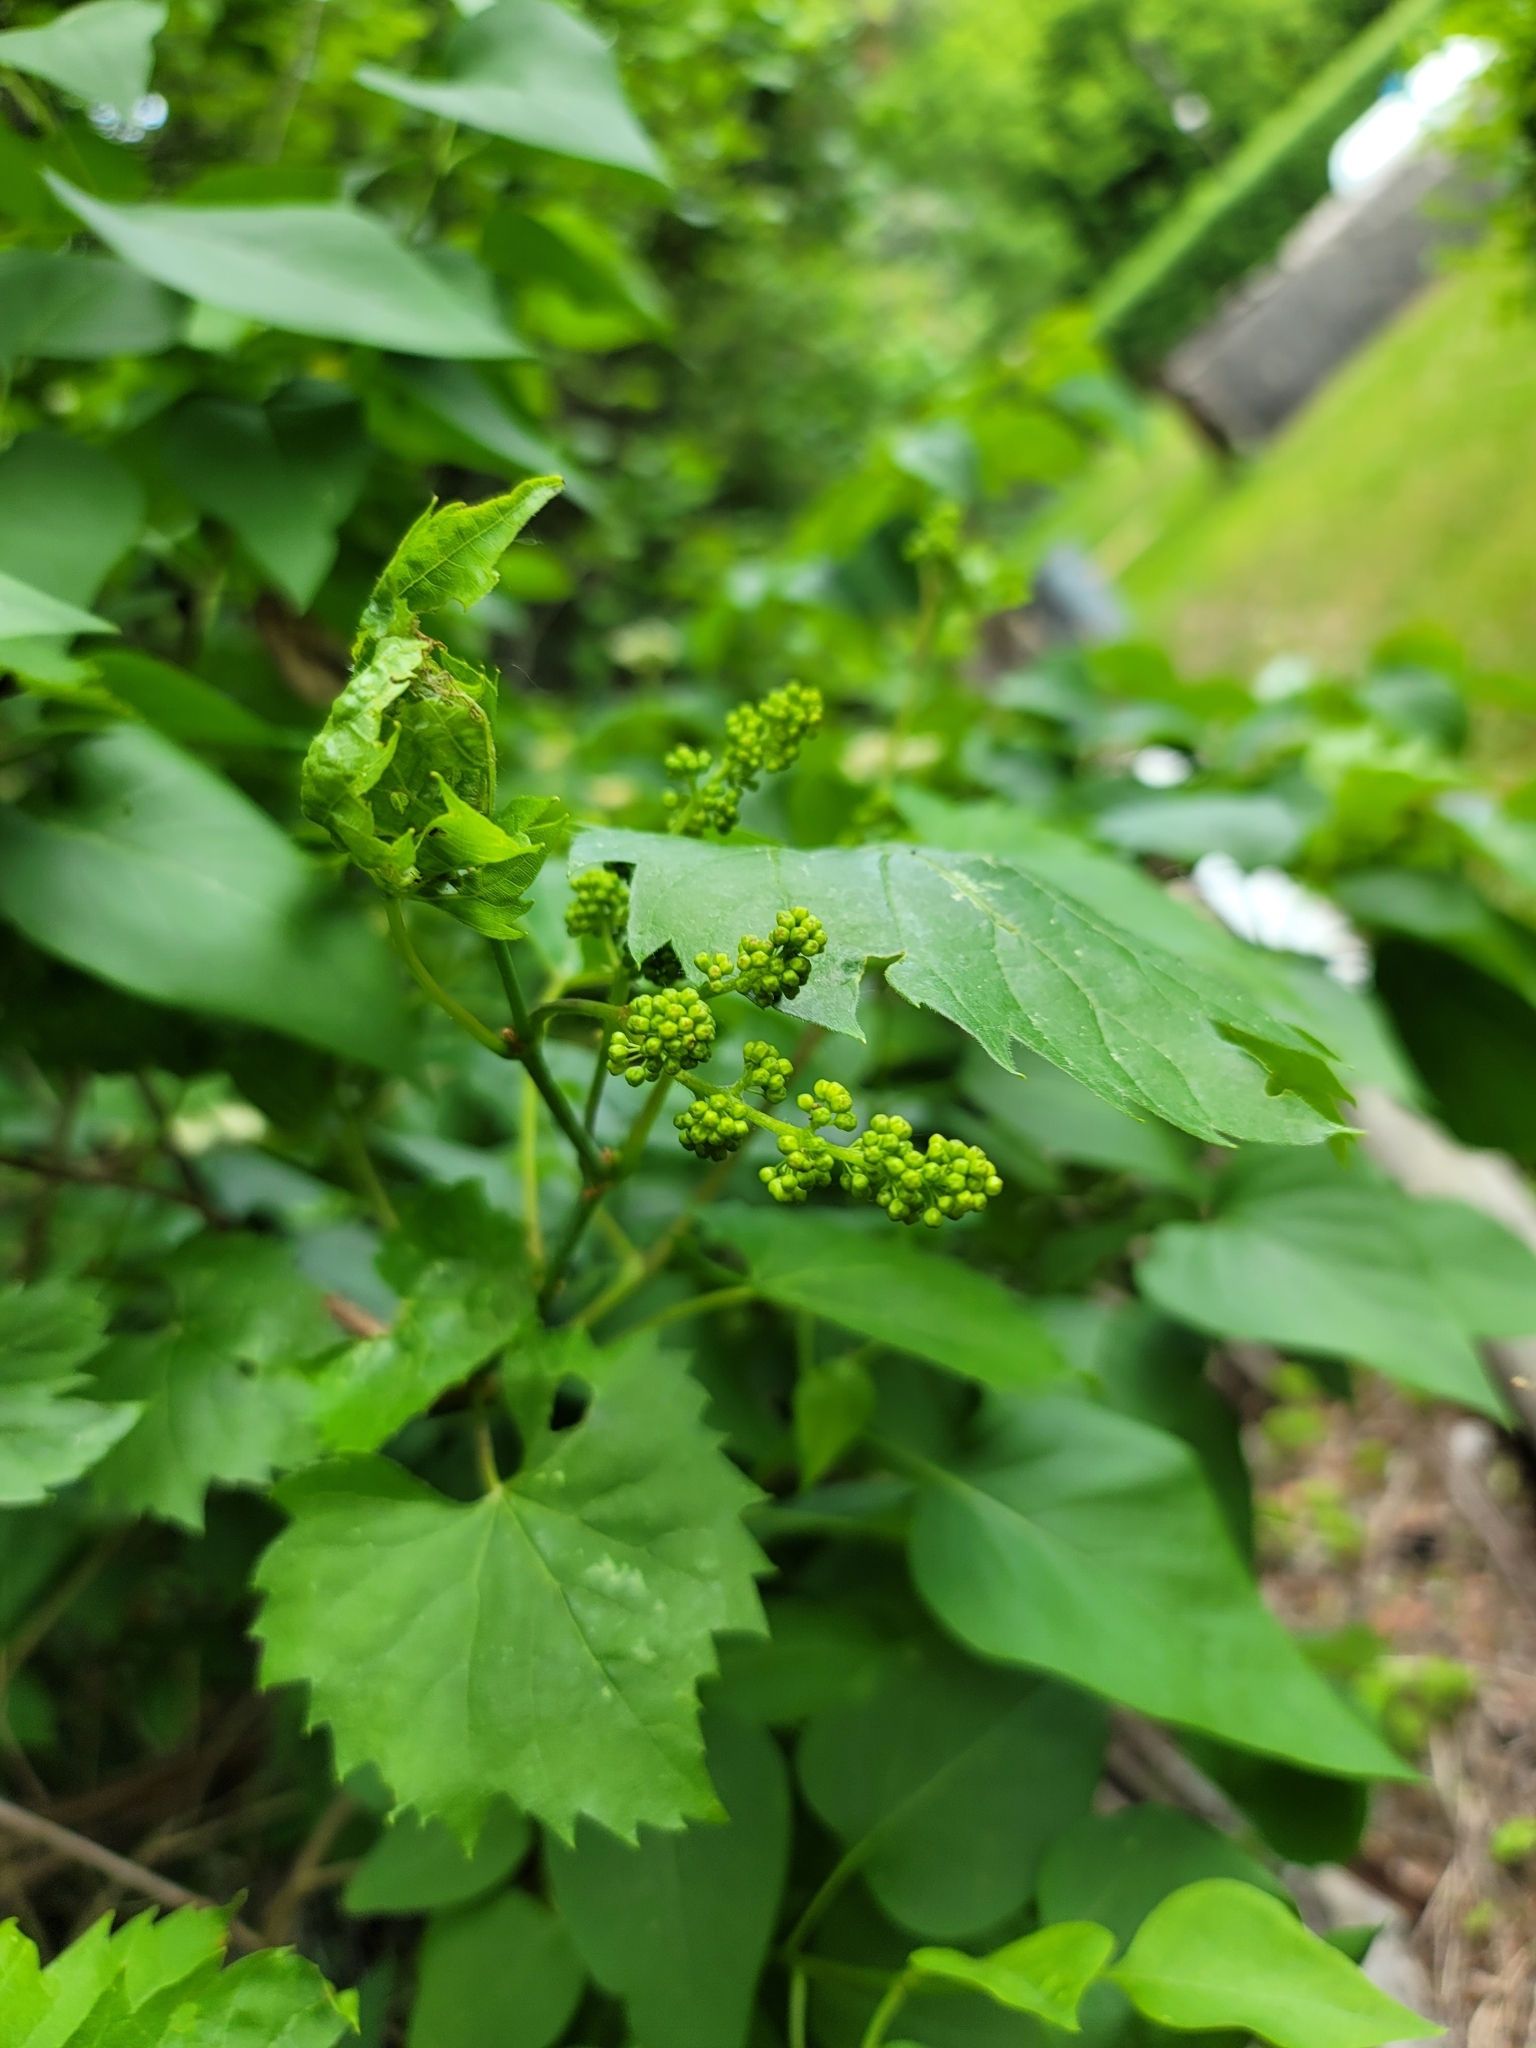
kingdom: Plantae
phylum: Tracheophyta
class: Magnoliopsida
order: Vitales
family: Vitaceae
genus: Vitis
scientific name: Vitis riparia
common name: Frost grape
